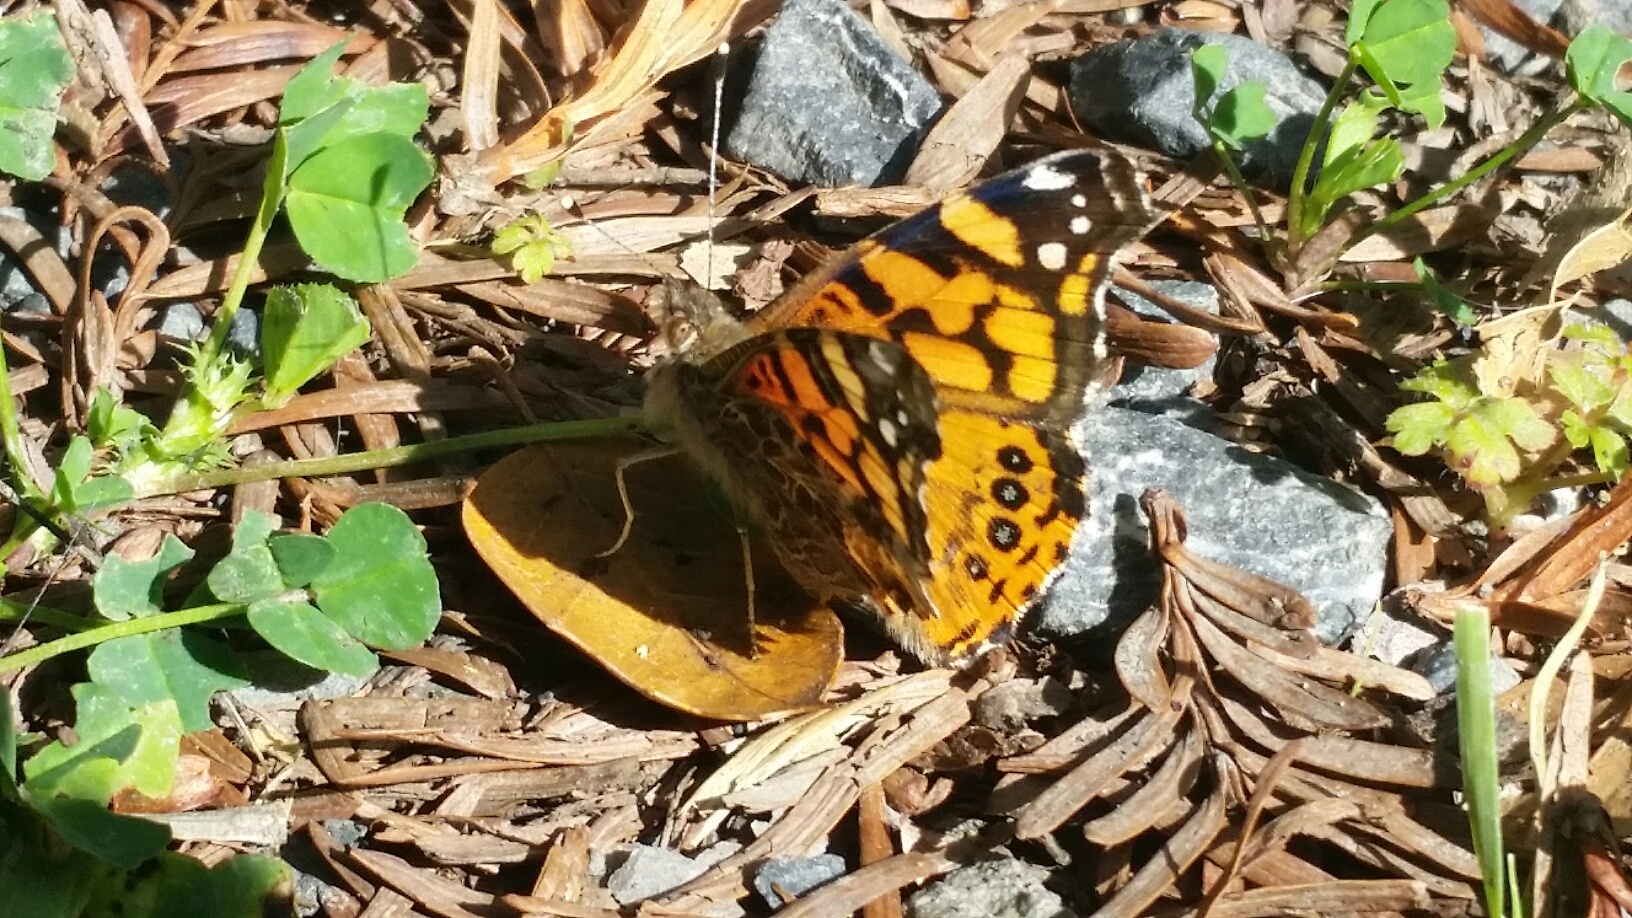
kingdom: Animalia
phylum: Arthropoda
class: Insecta
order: Lepidoptera
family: Nymphalidae
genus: Vanessa
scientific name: Vanessa annabella
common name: West coast lady
